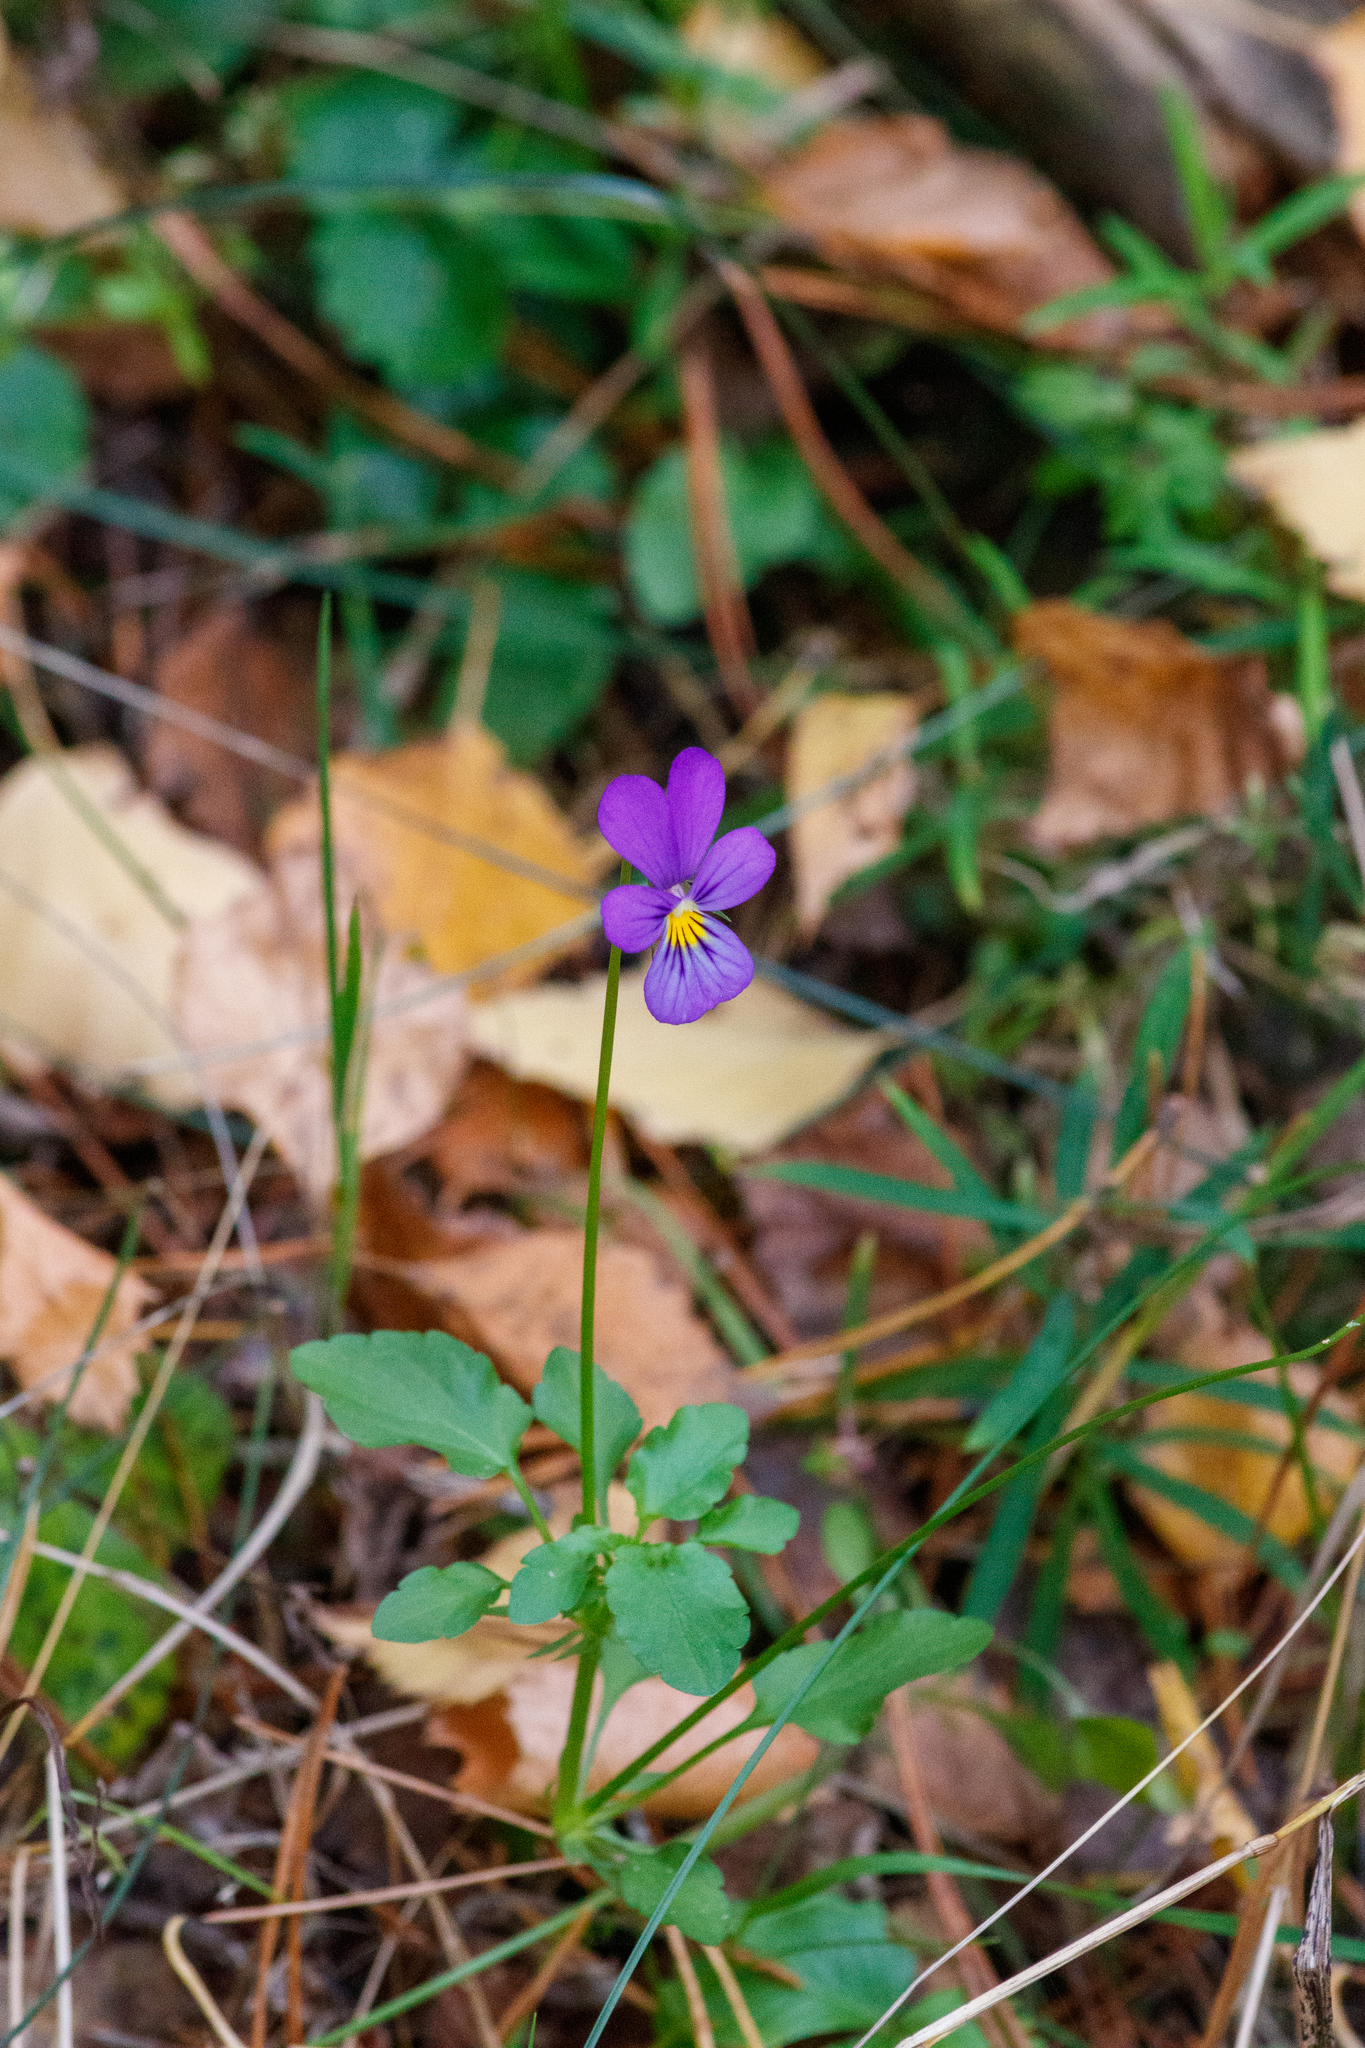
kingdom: Plantae
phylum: Tracheophyta
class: Magnoliopsida
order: Malpighiales
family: Violaceae
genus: Viola
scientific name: Viola tricolor
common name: Pansy
